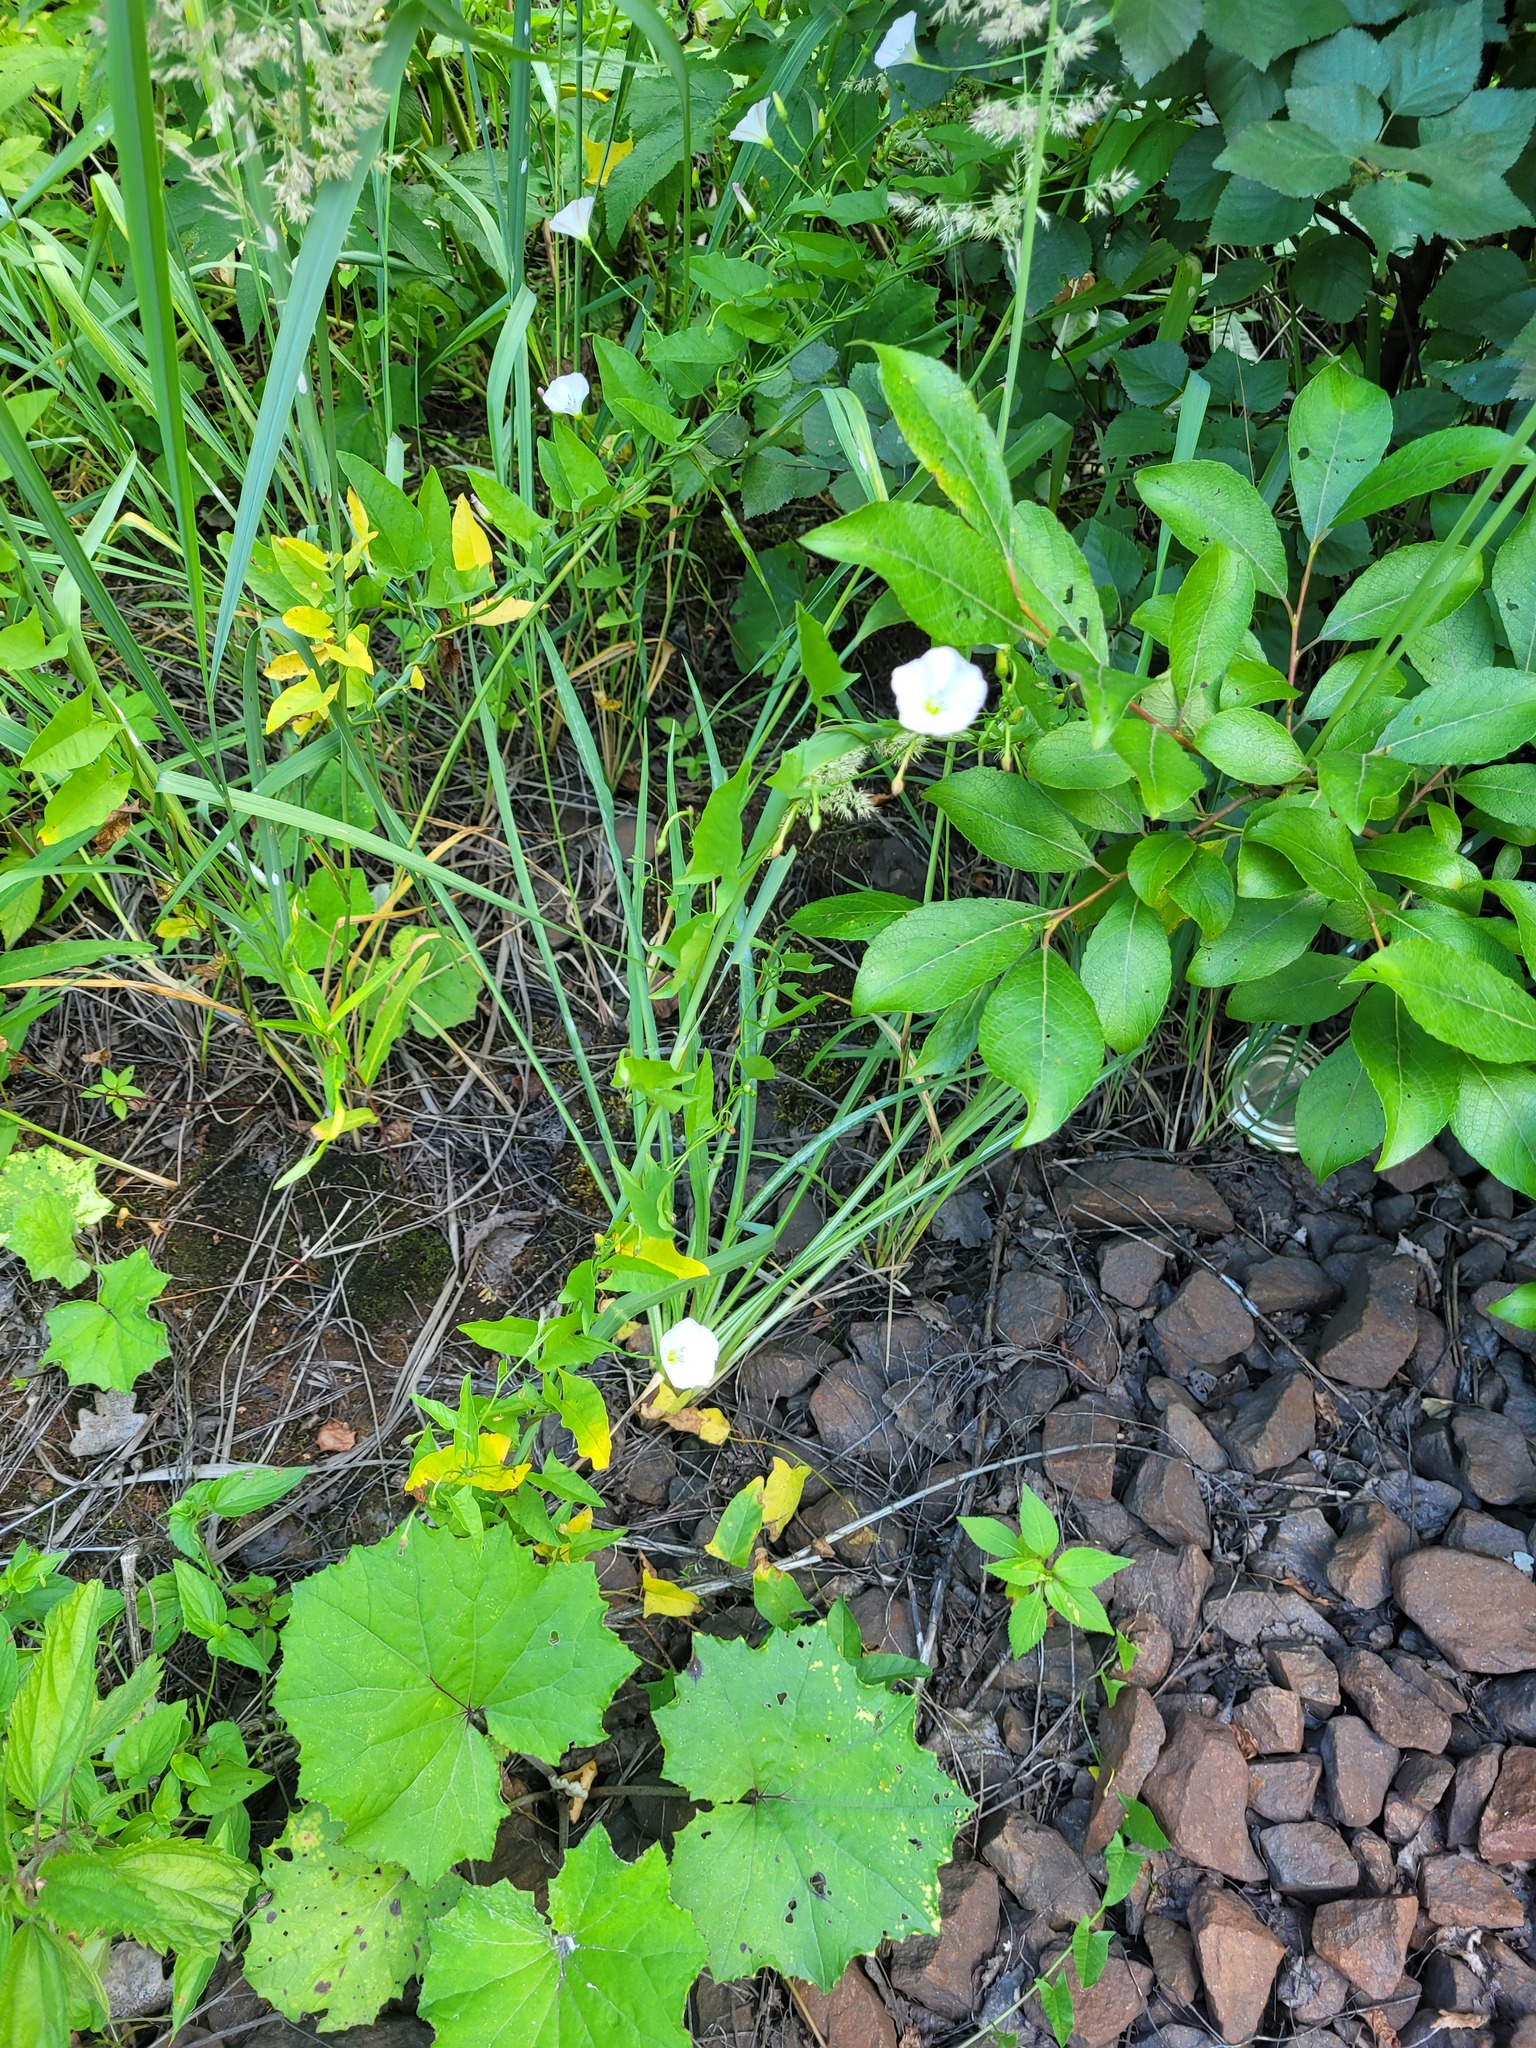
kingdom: Plantae
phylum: Tracheophyta
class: Magnoliopsida
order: Solanales
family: Convolvulaceae
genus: Convolvulus
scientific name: Convolvulus arvensis
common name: Field bindweed
